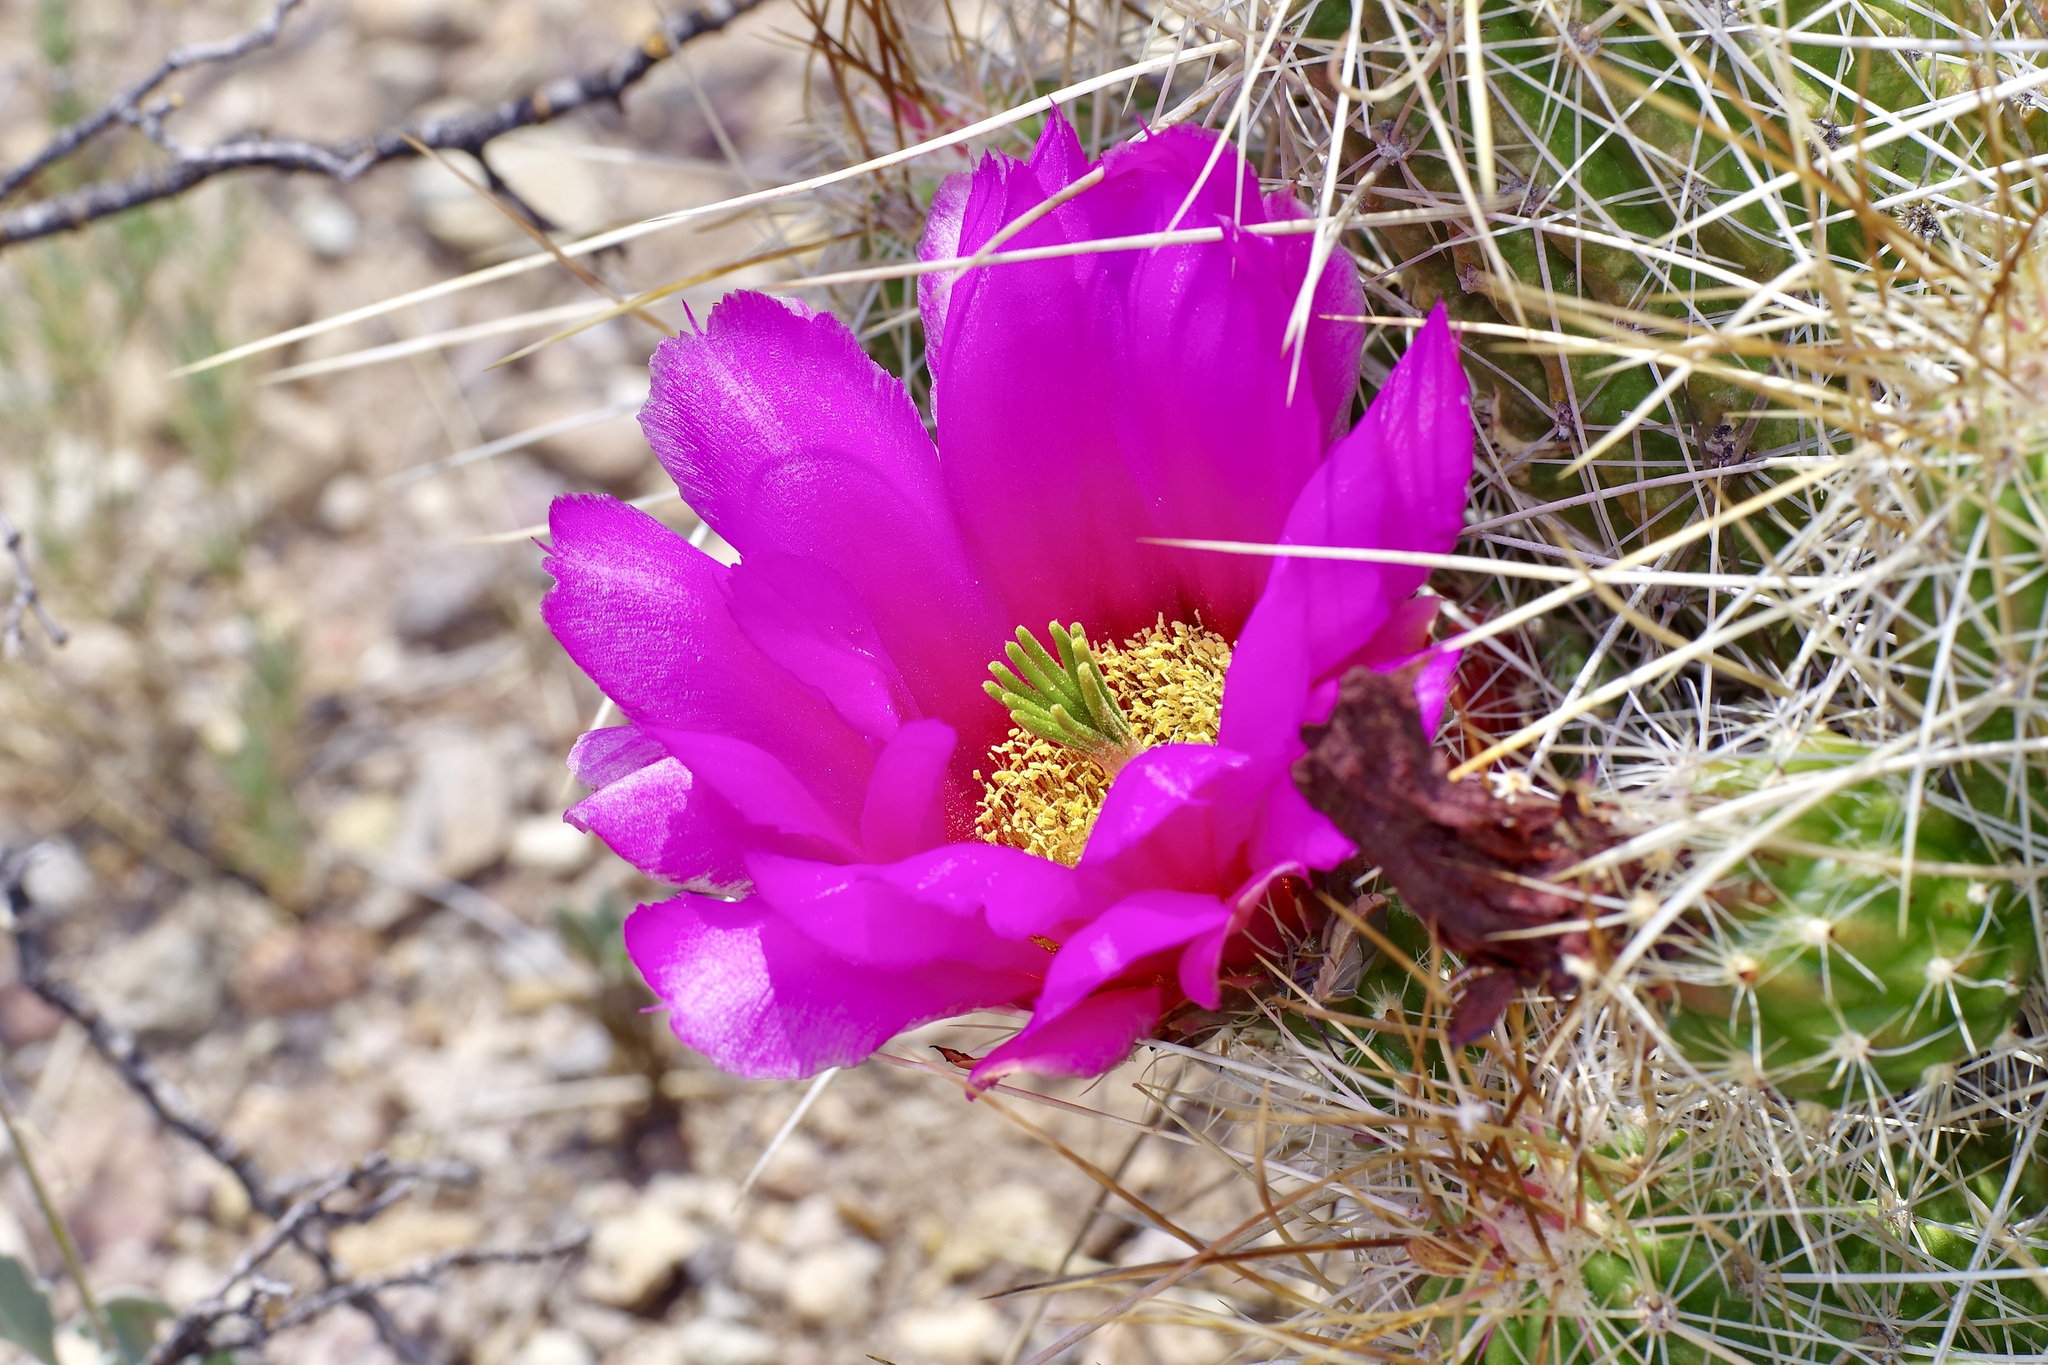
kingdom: Plantae
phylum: Tracheophyta
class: Magnoliopsida
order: Caryophyllales
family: Cactaceae
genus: Echinocereus
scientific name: Echinocereus stramineus
